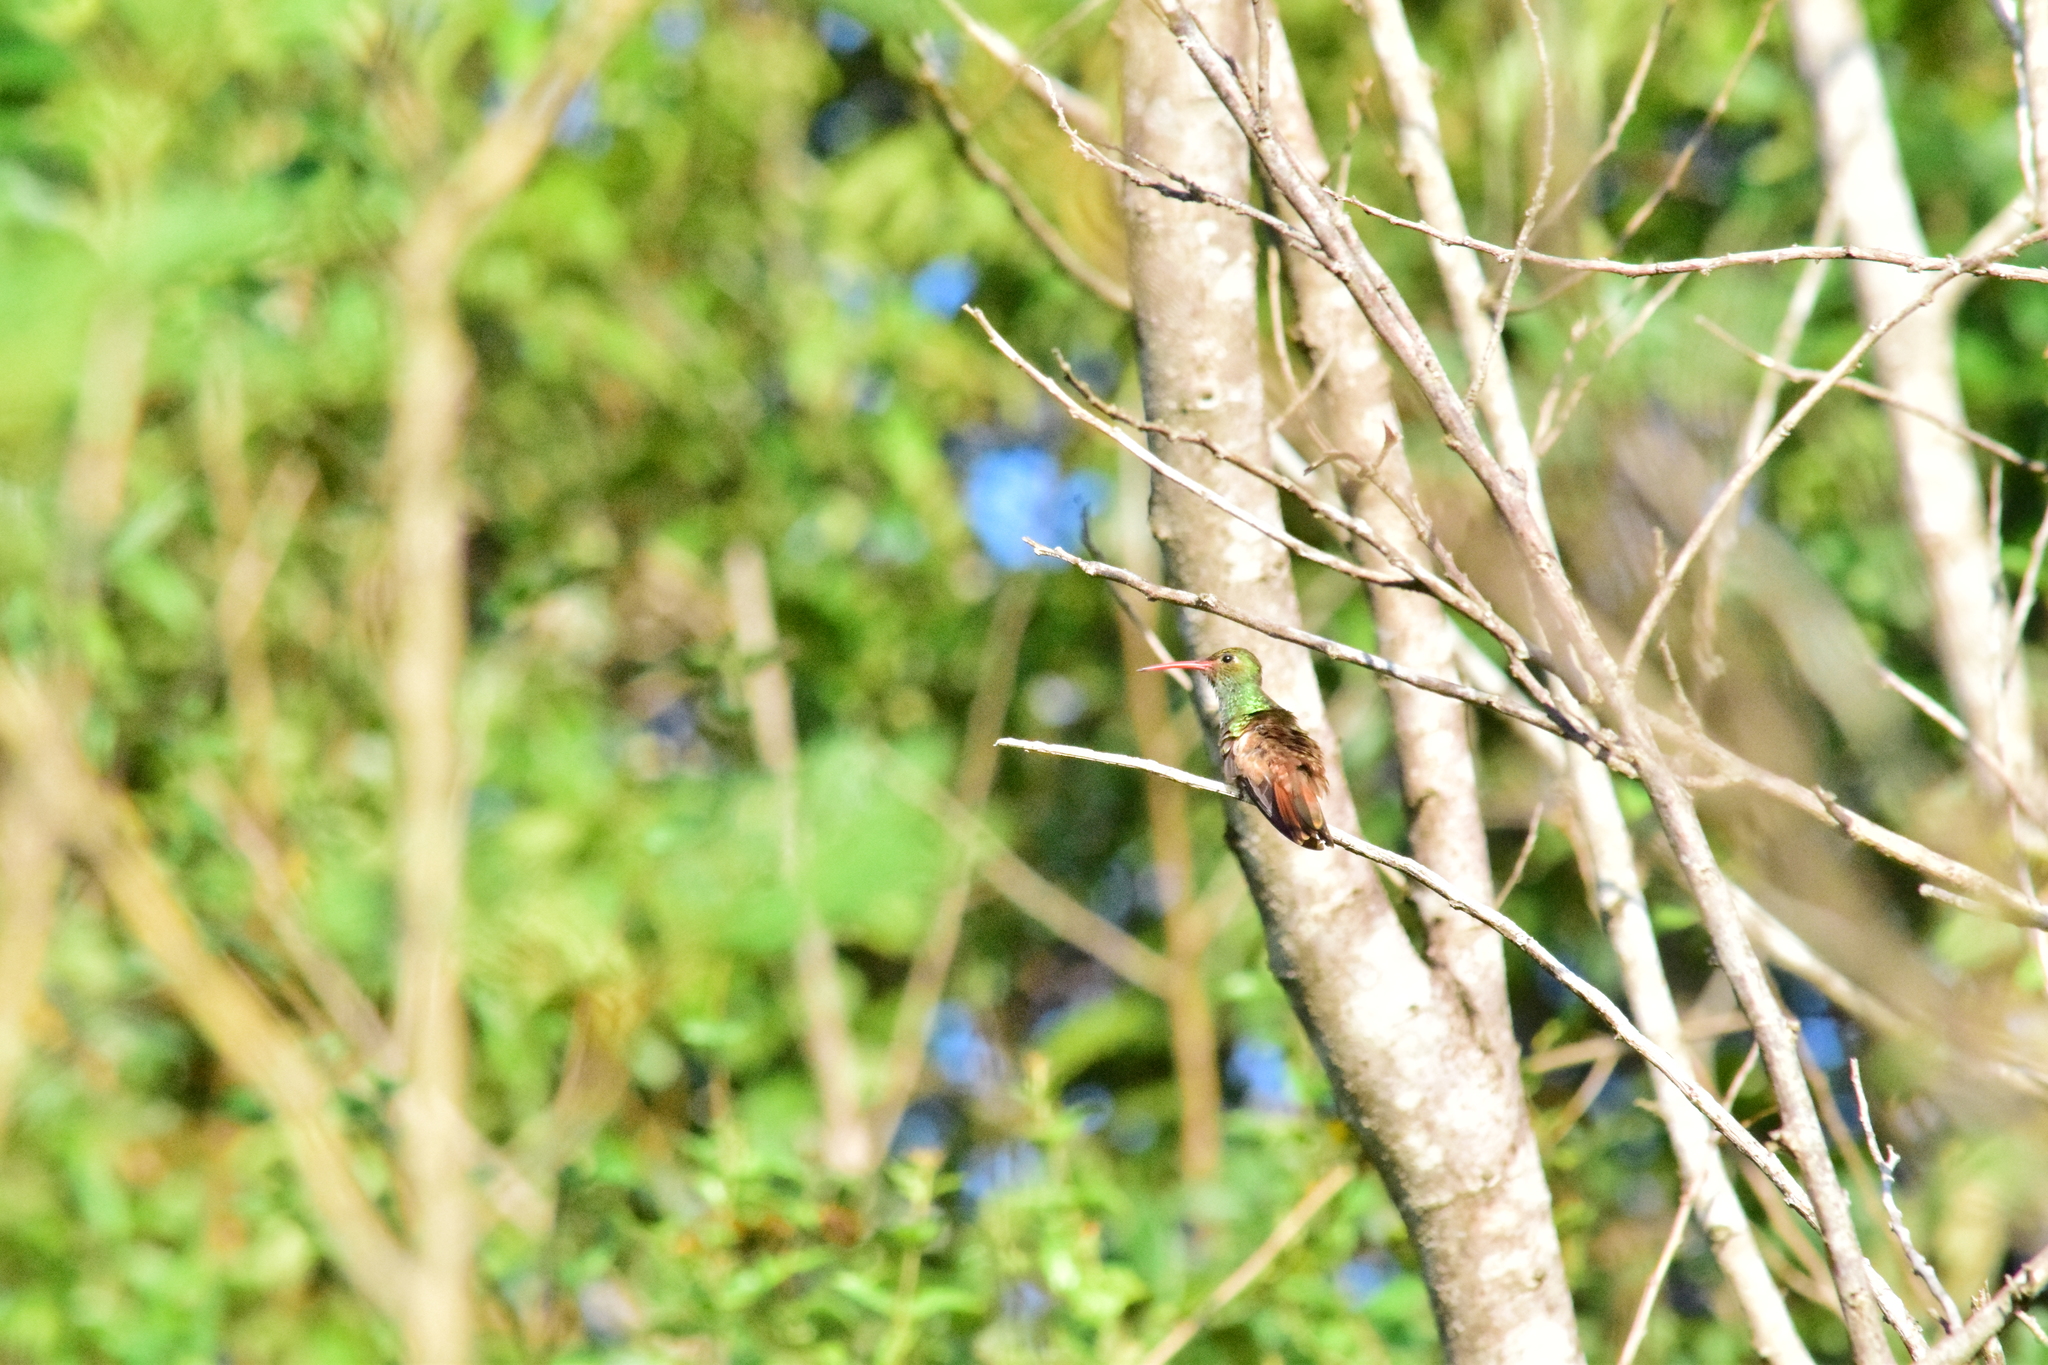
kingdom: Animalia
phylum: Chordata
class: Aves
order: Apodiformes
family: Trochilidae
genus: Amazilia
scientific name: Amazilia tzacatl
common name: Rufous-tailed hummingbird
